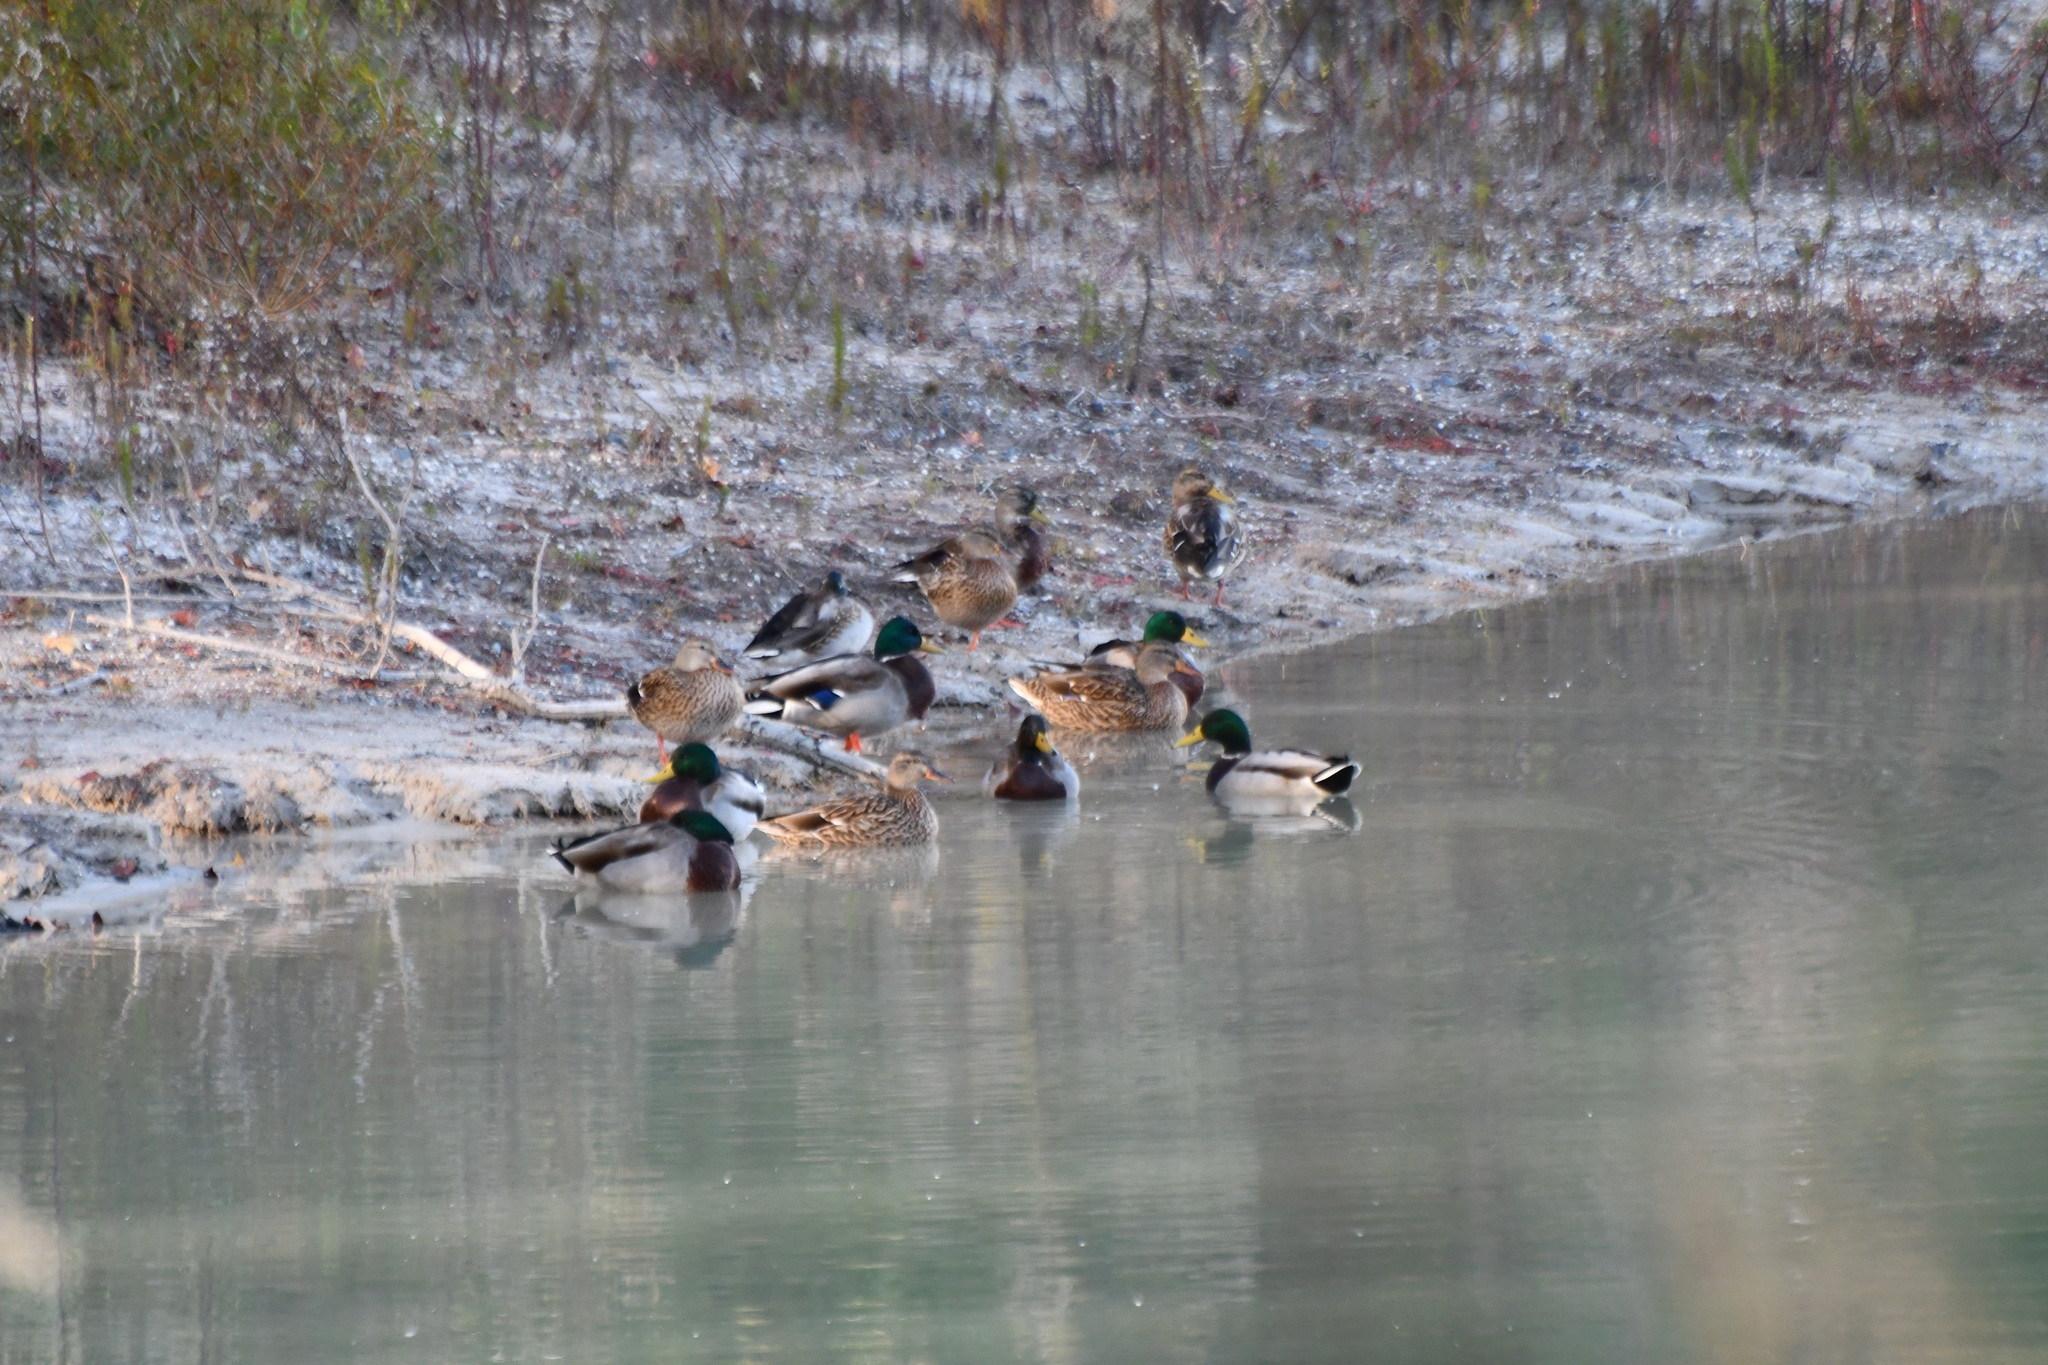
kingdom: Animalia
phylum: Chordata
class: Aves
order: Anseriformes
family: Anatidae
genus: Anas
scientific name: Anas platyrhynchos
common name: Mallard
